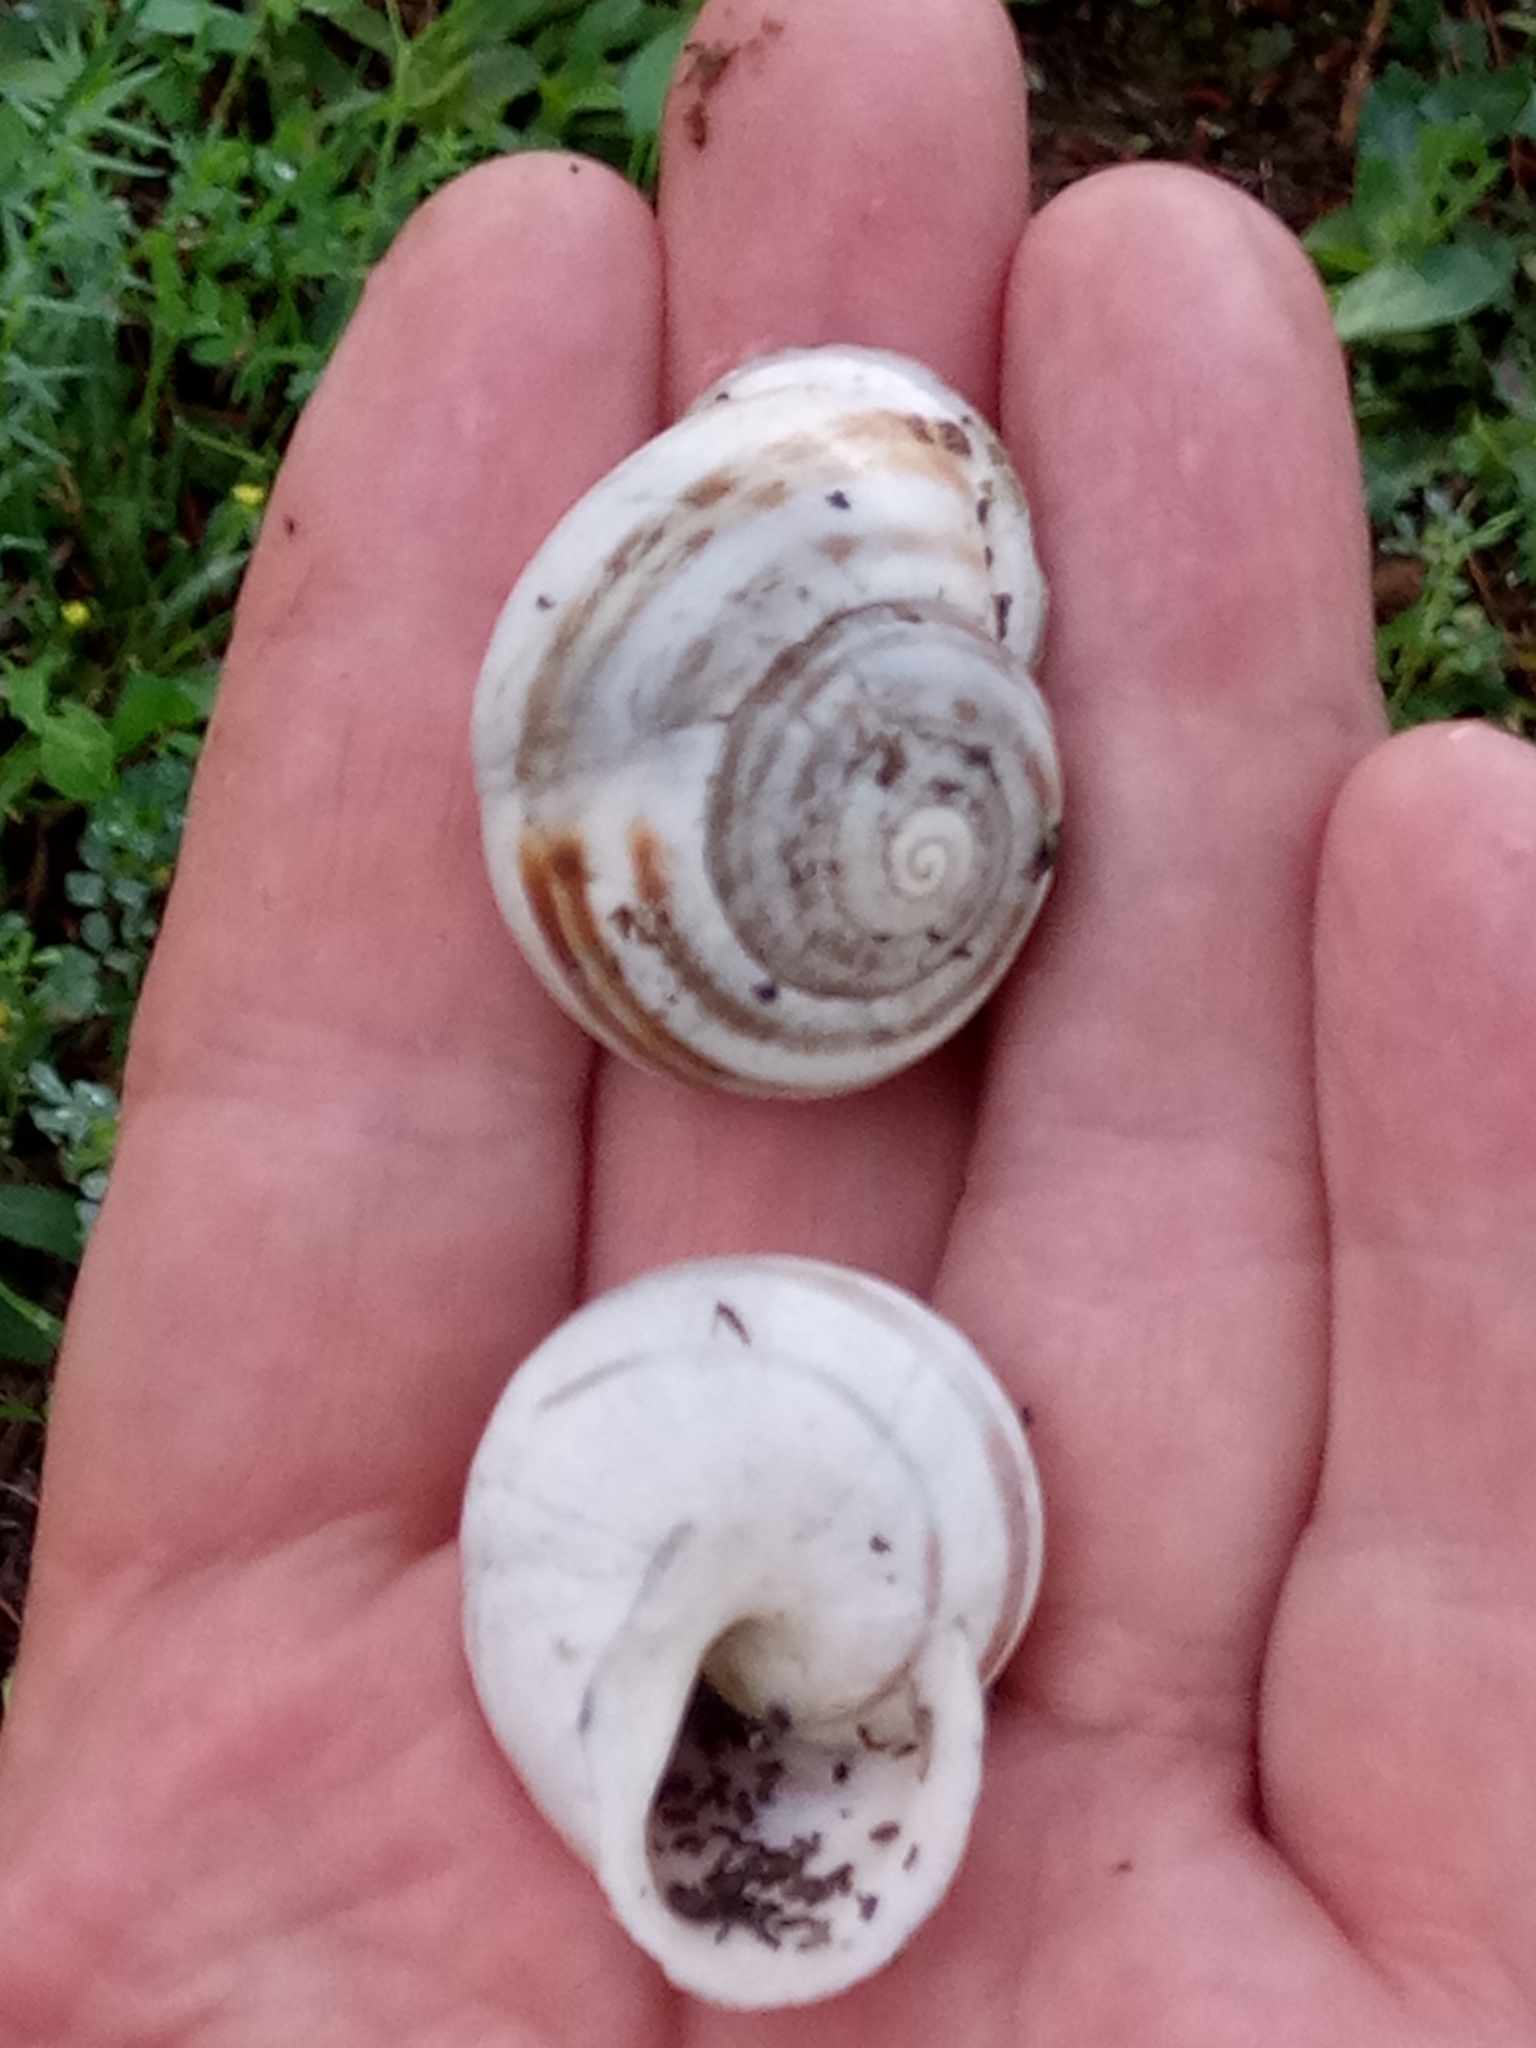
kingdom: Animalia
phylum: Mollusca
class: Gastropoda
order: Stylommatophora
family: Helicidae
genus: Eobania
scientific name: Eobania vermiculata
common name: Chocolateband snail
